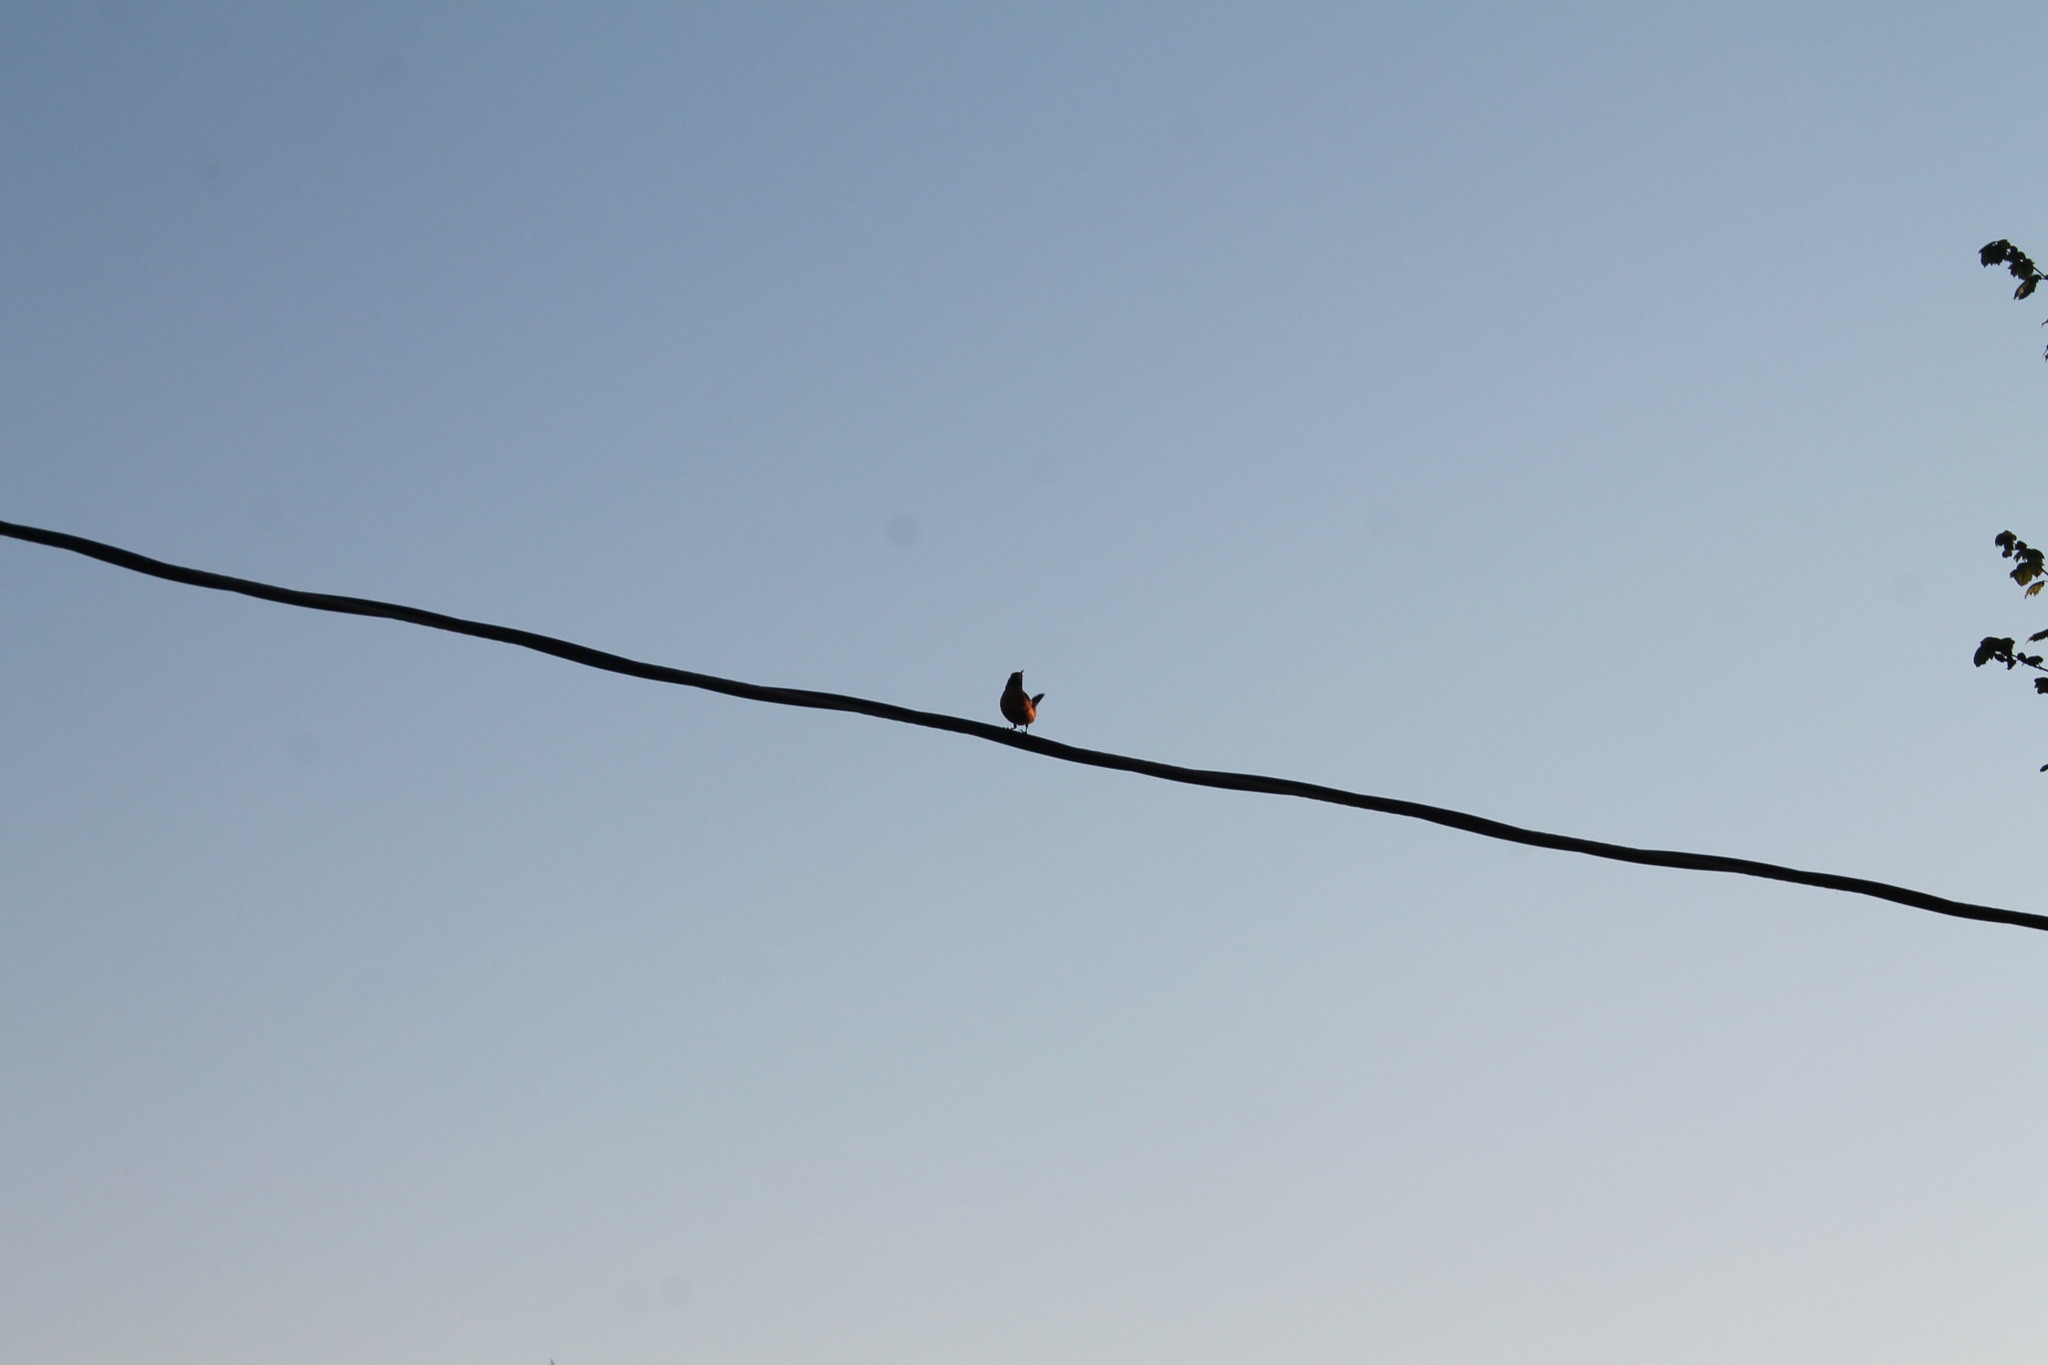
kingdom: Animalia
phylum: Chordata
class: Aves
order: Passeriformes
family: Turdidae
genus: Turdus
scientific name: Turdus migratorius
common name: American robin
